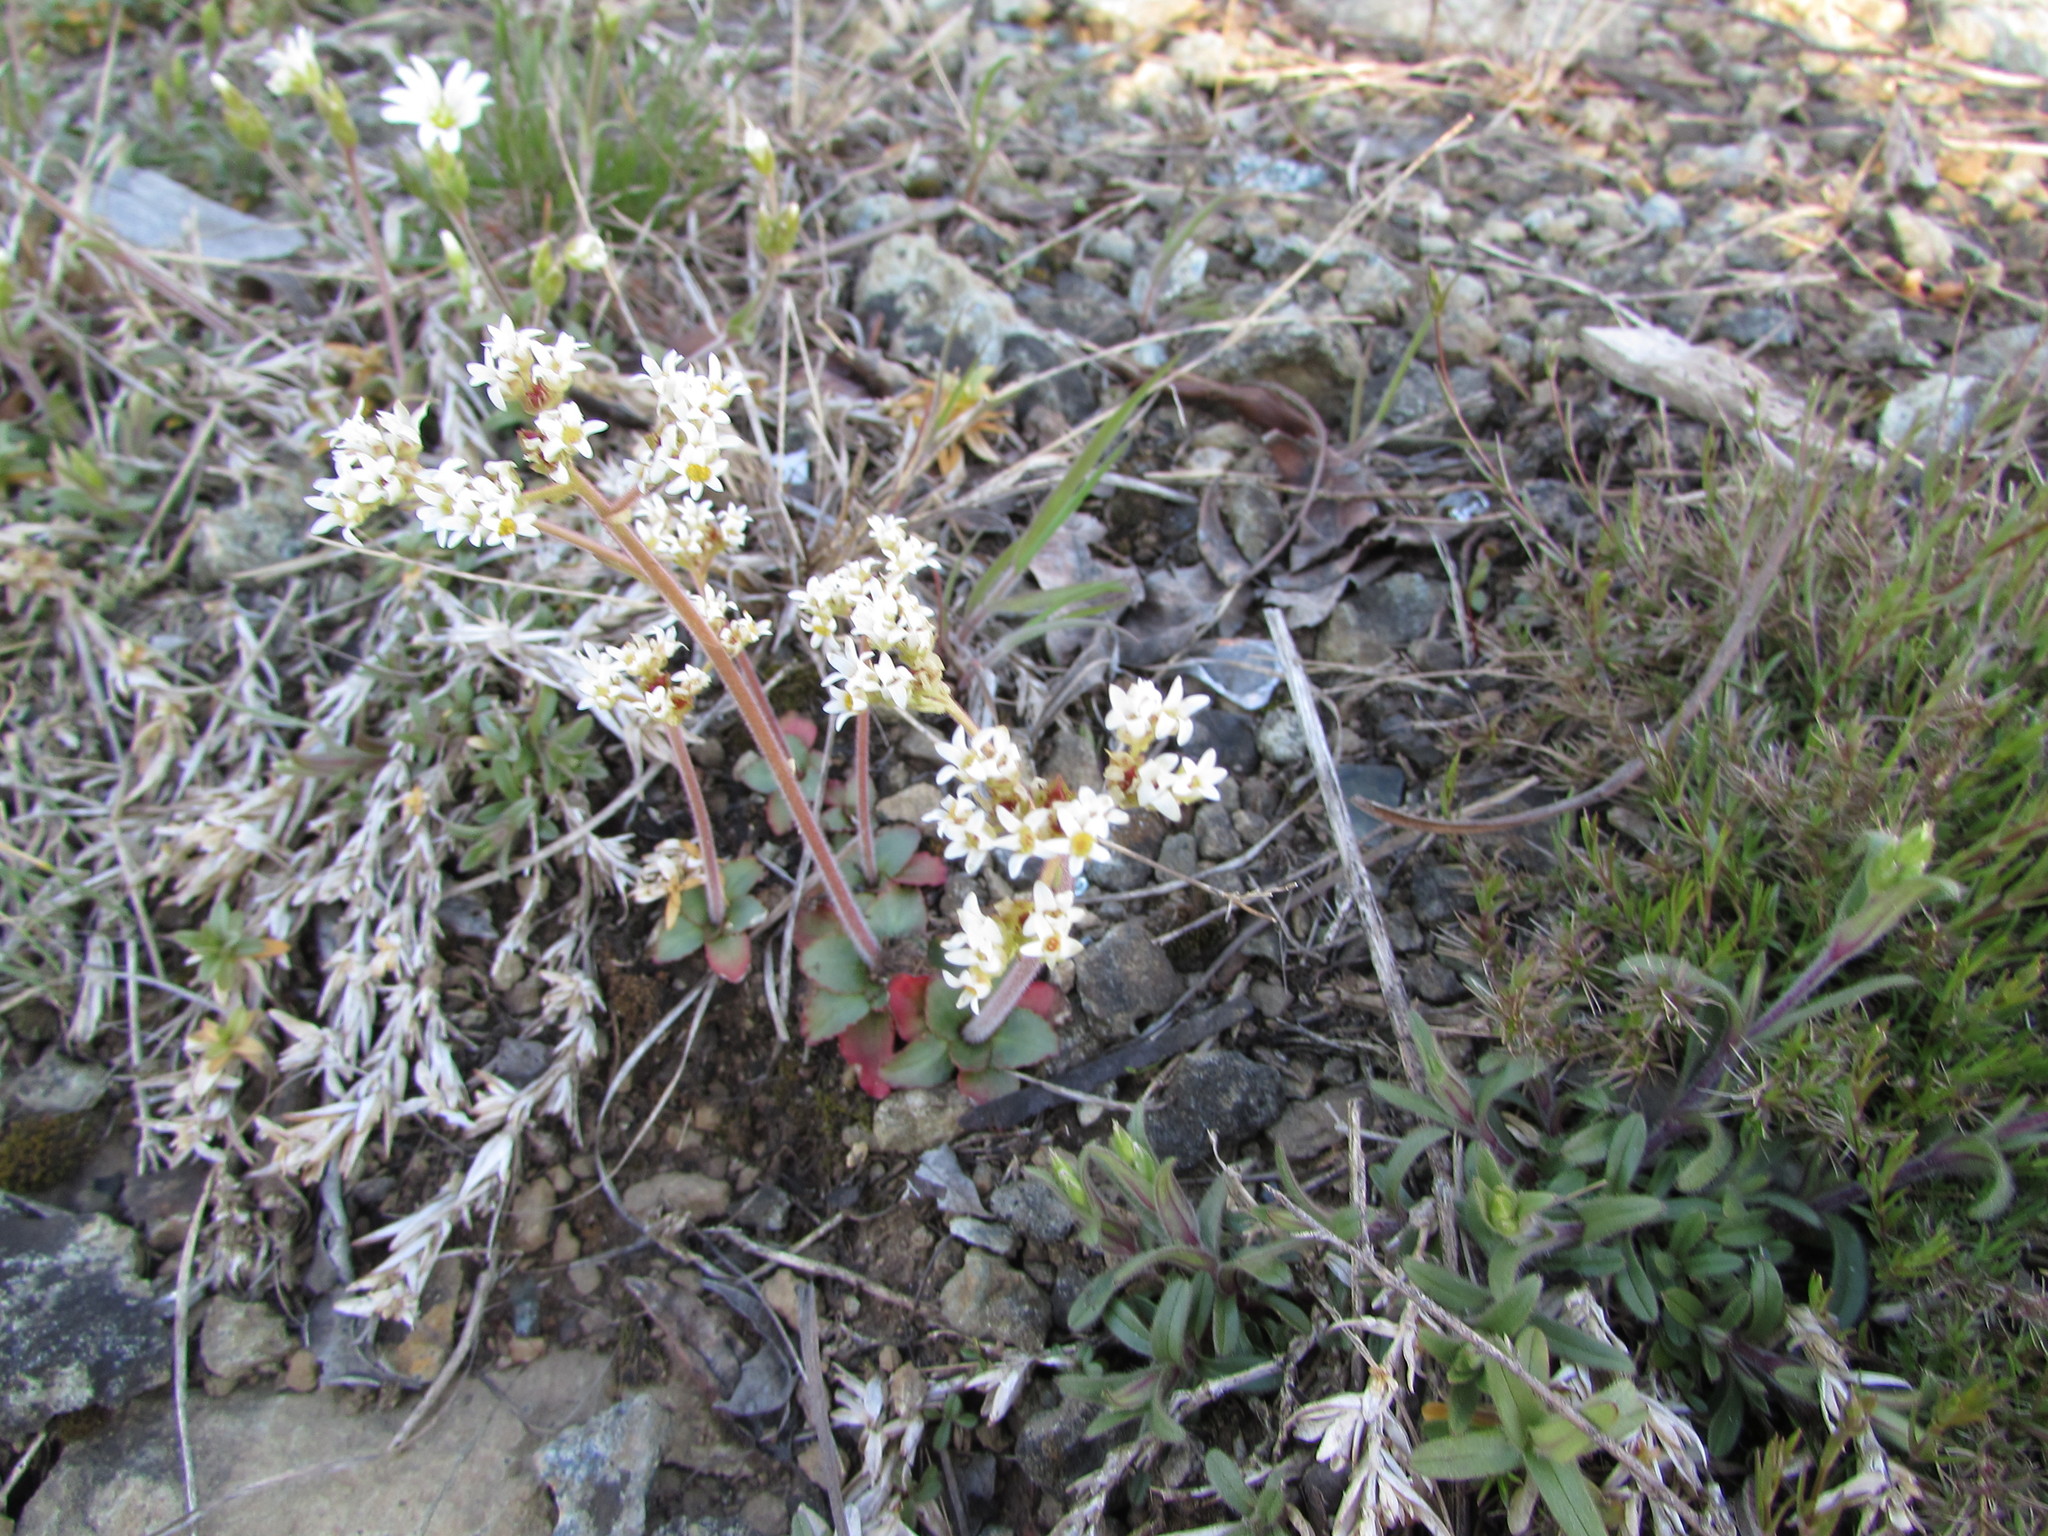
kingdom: Plantae
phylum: Tracheophyta
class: Magnoliopsida
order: Saxifragales
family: Saxifragaceae
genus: Micranthes
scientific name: Micranthes virginiensis
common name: Early saxifrage
